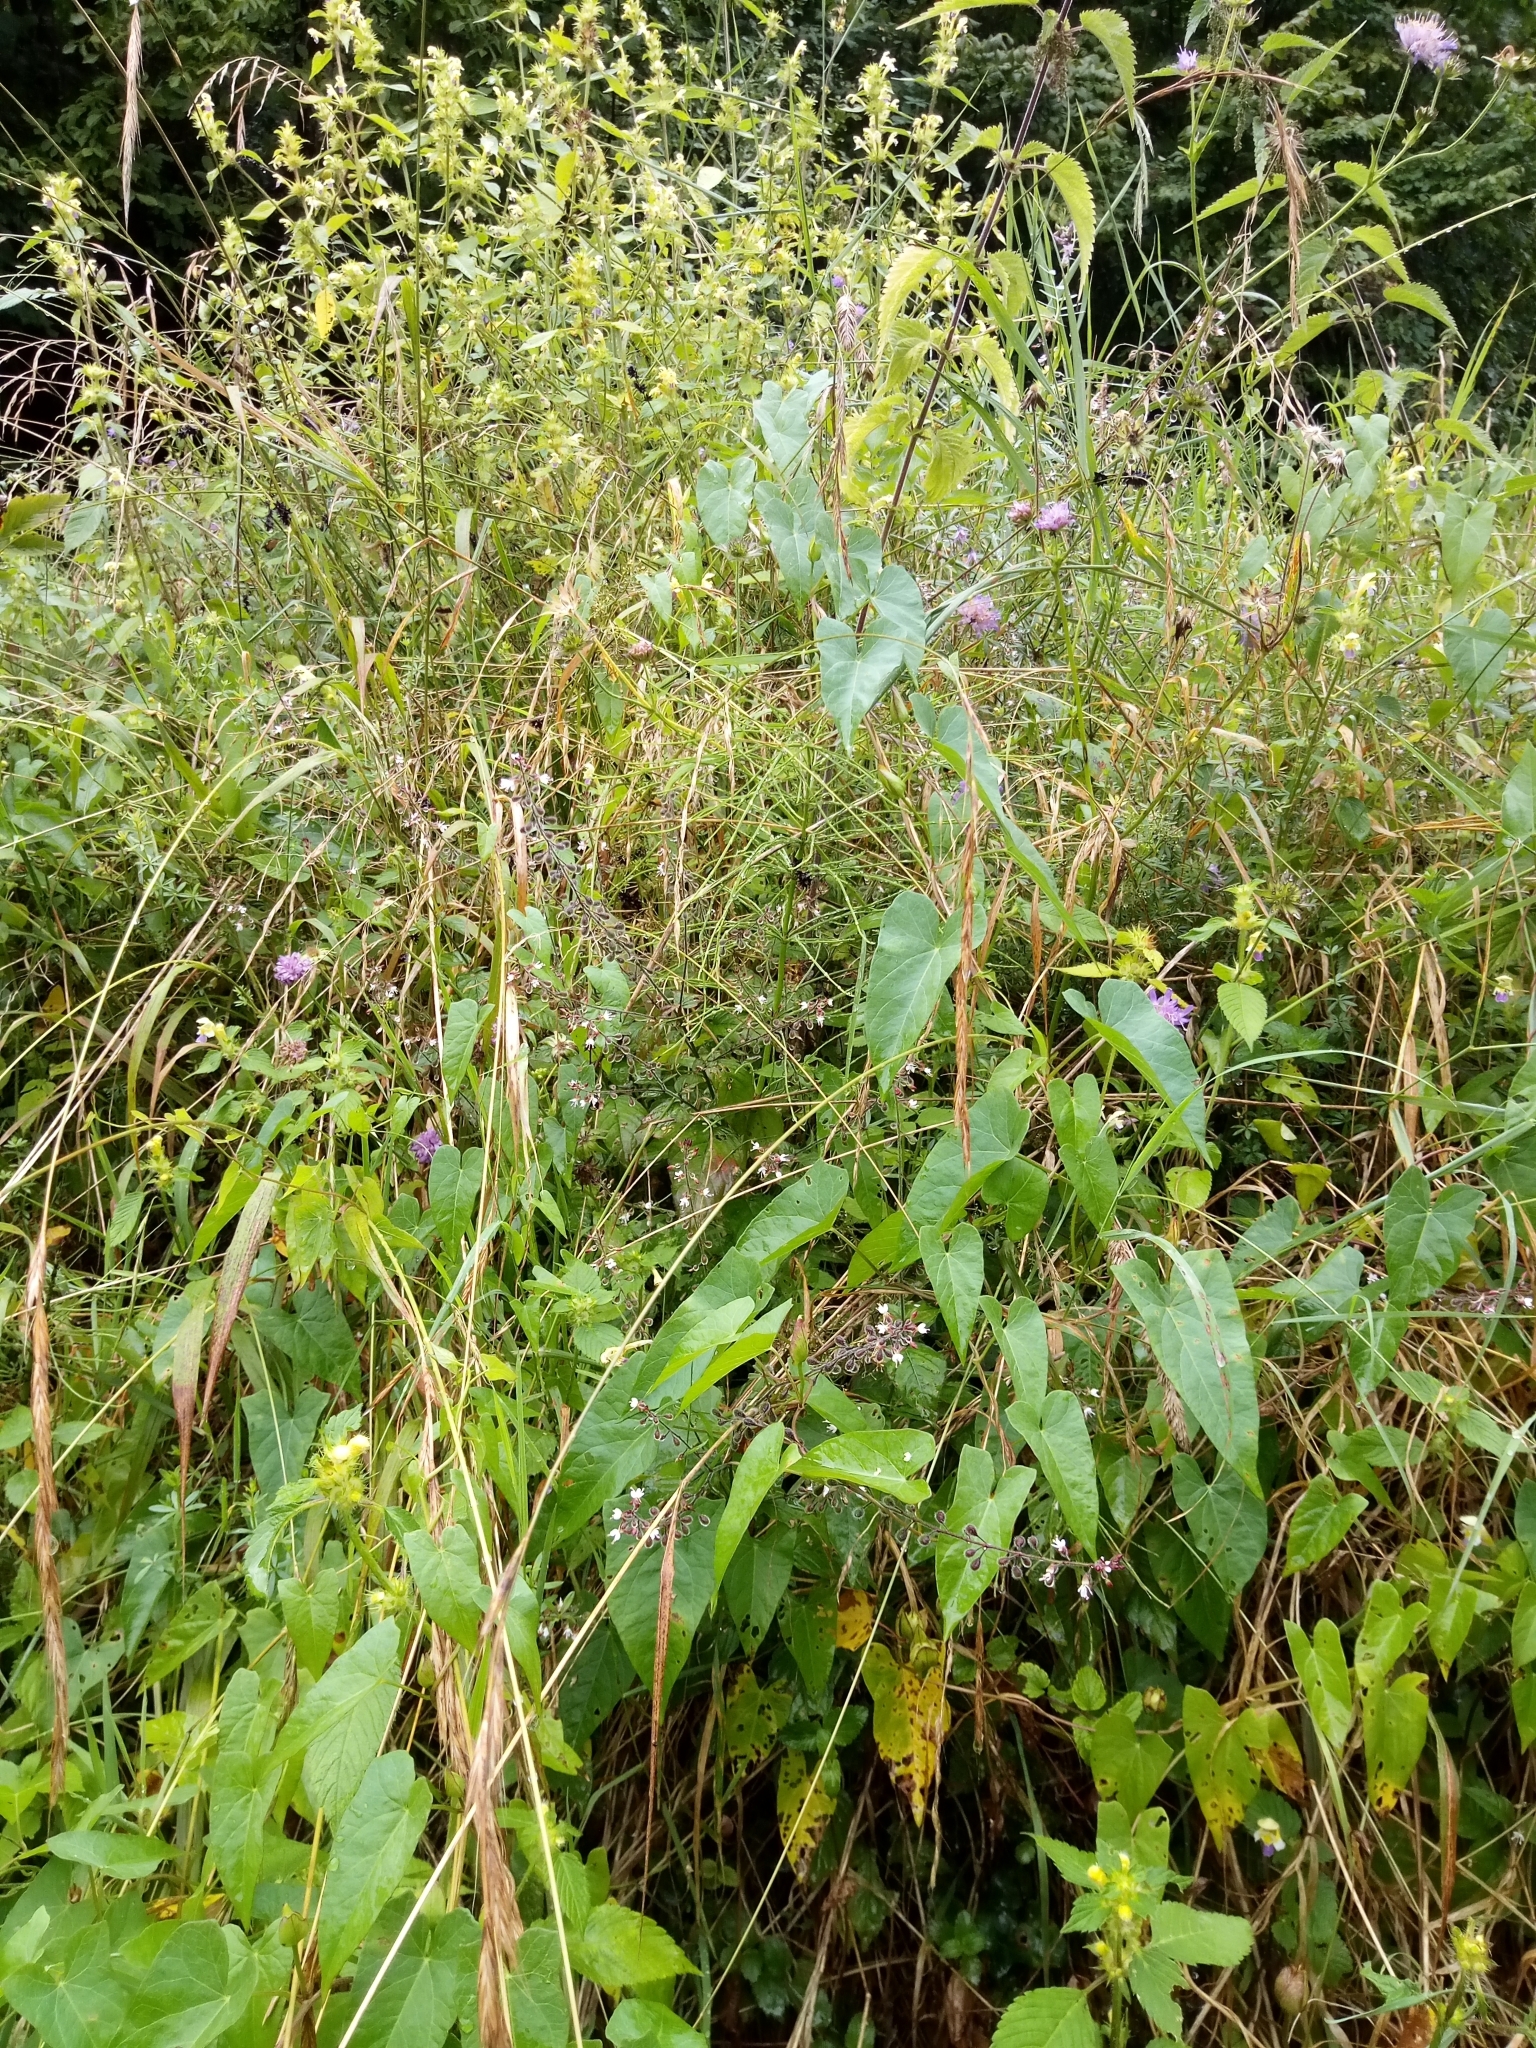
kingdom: Plantae
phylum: Tracheophyta
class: Magnoliopsida
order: Myrtales
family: Onagraceae
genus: Circaea
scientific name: Circaea lutetiana
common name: Enchanter's-nightshade
